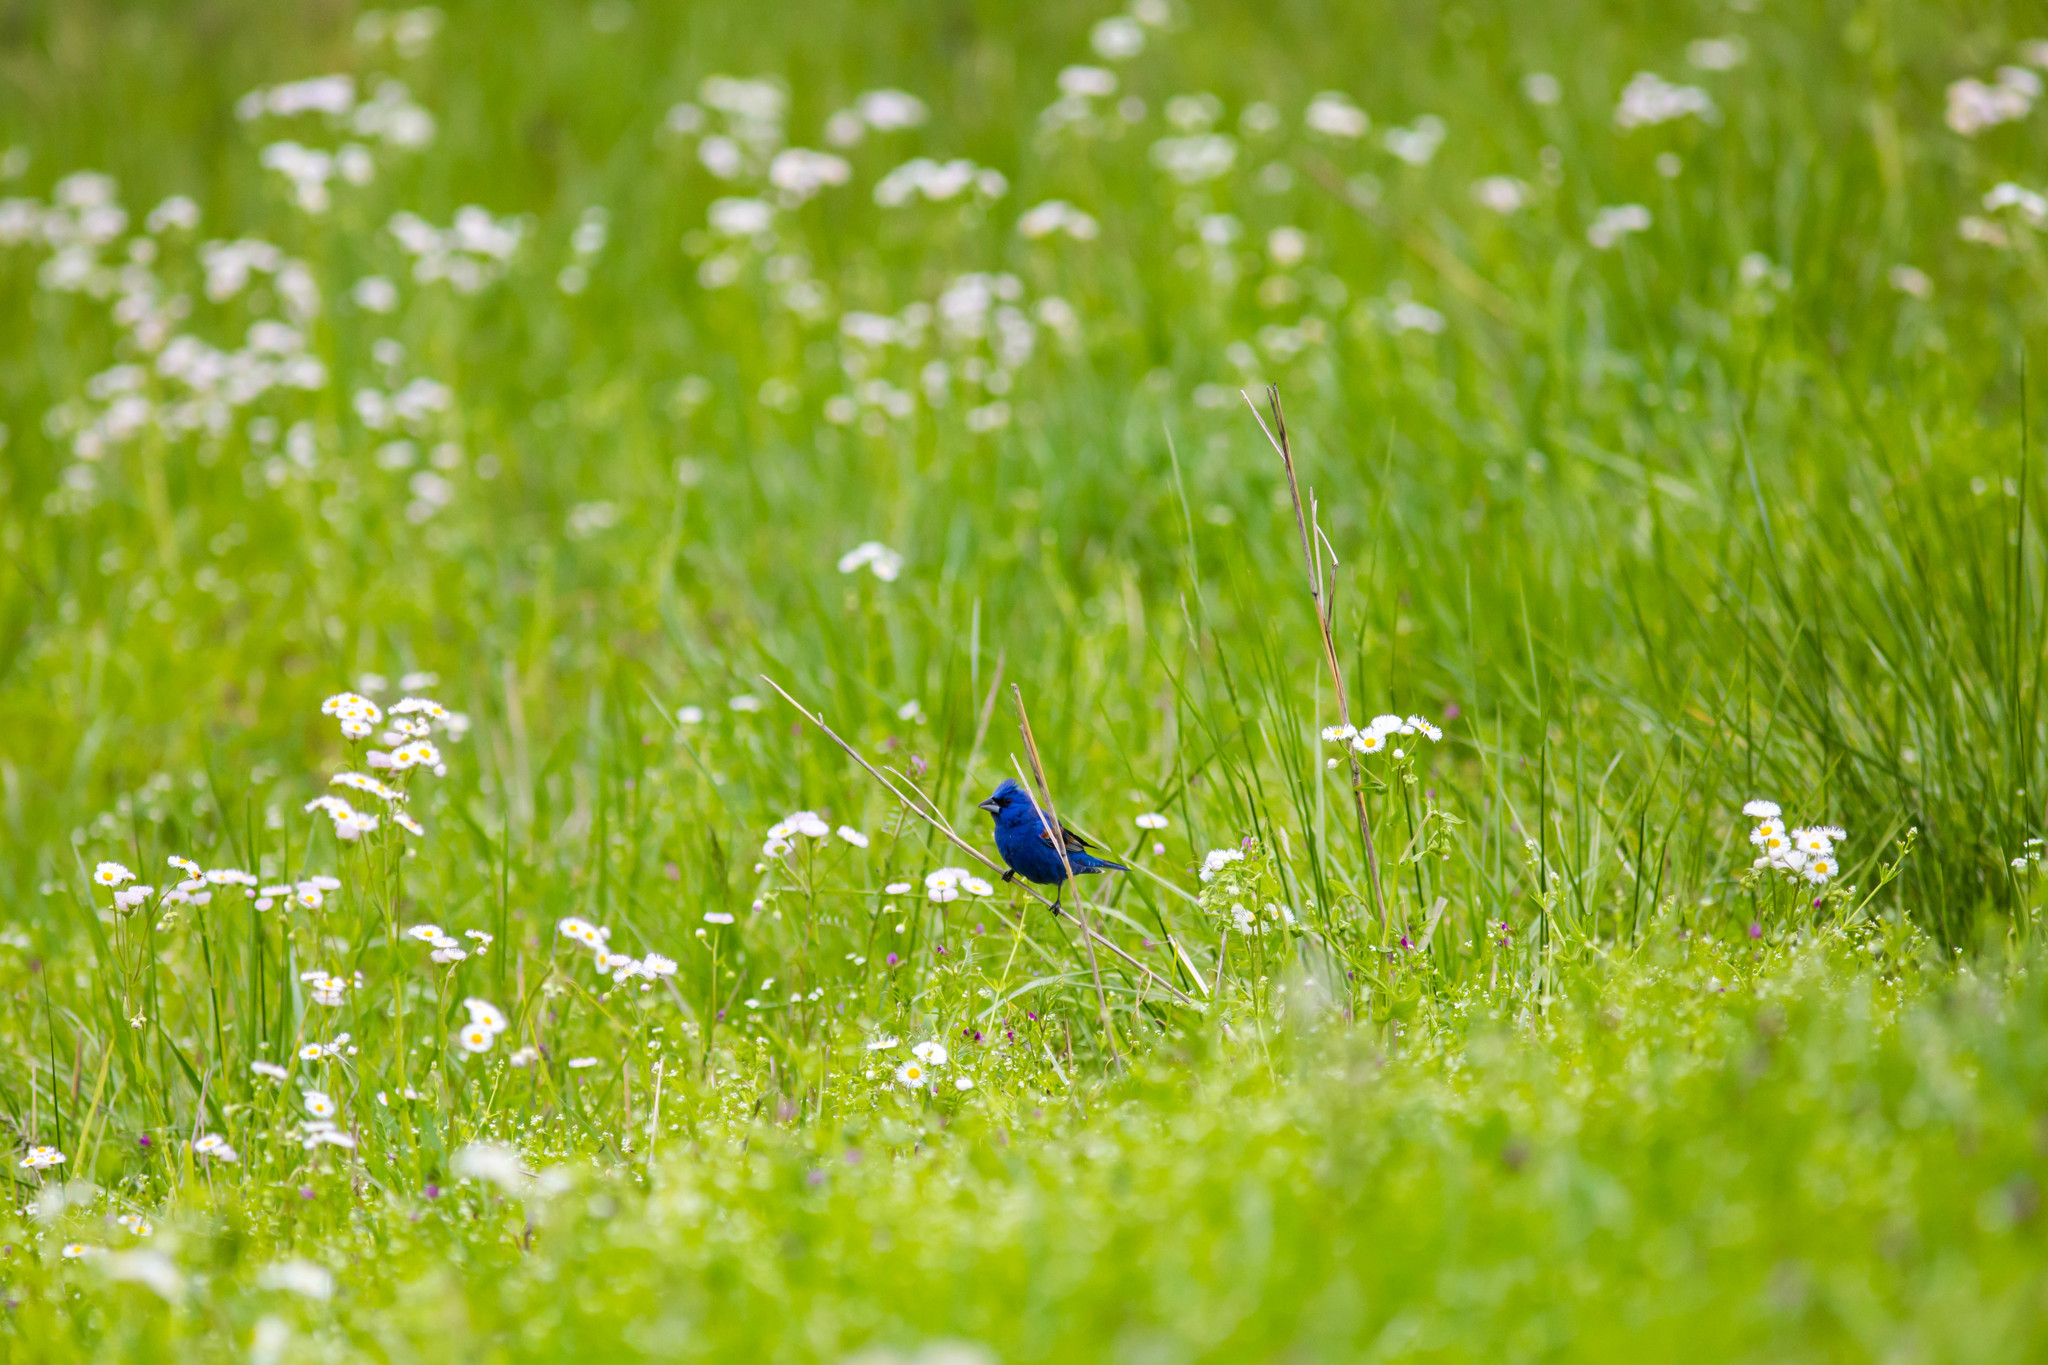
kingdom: Animalia
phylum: Chordata
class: Aves
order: Passeriformes
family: Cardinalidae
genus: Passerina
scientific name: Passerina caerulea
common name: Blue grosbeak
